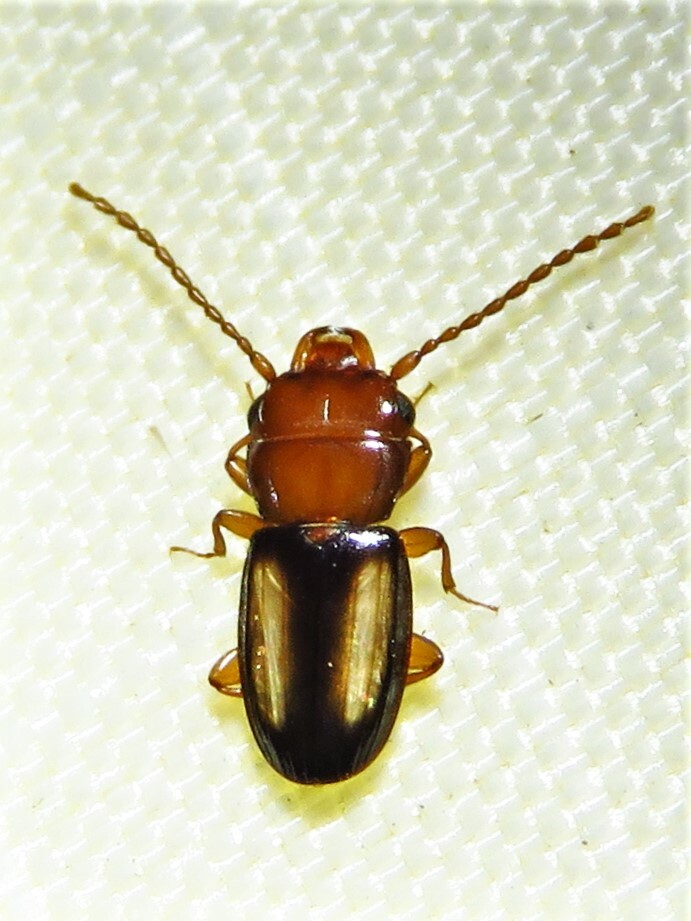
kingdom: Animalia
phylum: Arthropoda
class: Insecta
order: Coleoptera
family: Laemophloeidae
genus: Laemophloeus
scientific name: Laemophloeus terminalis
